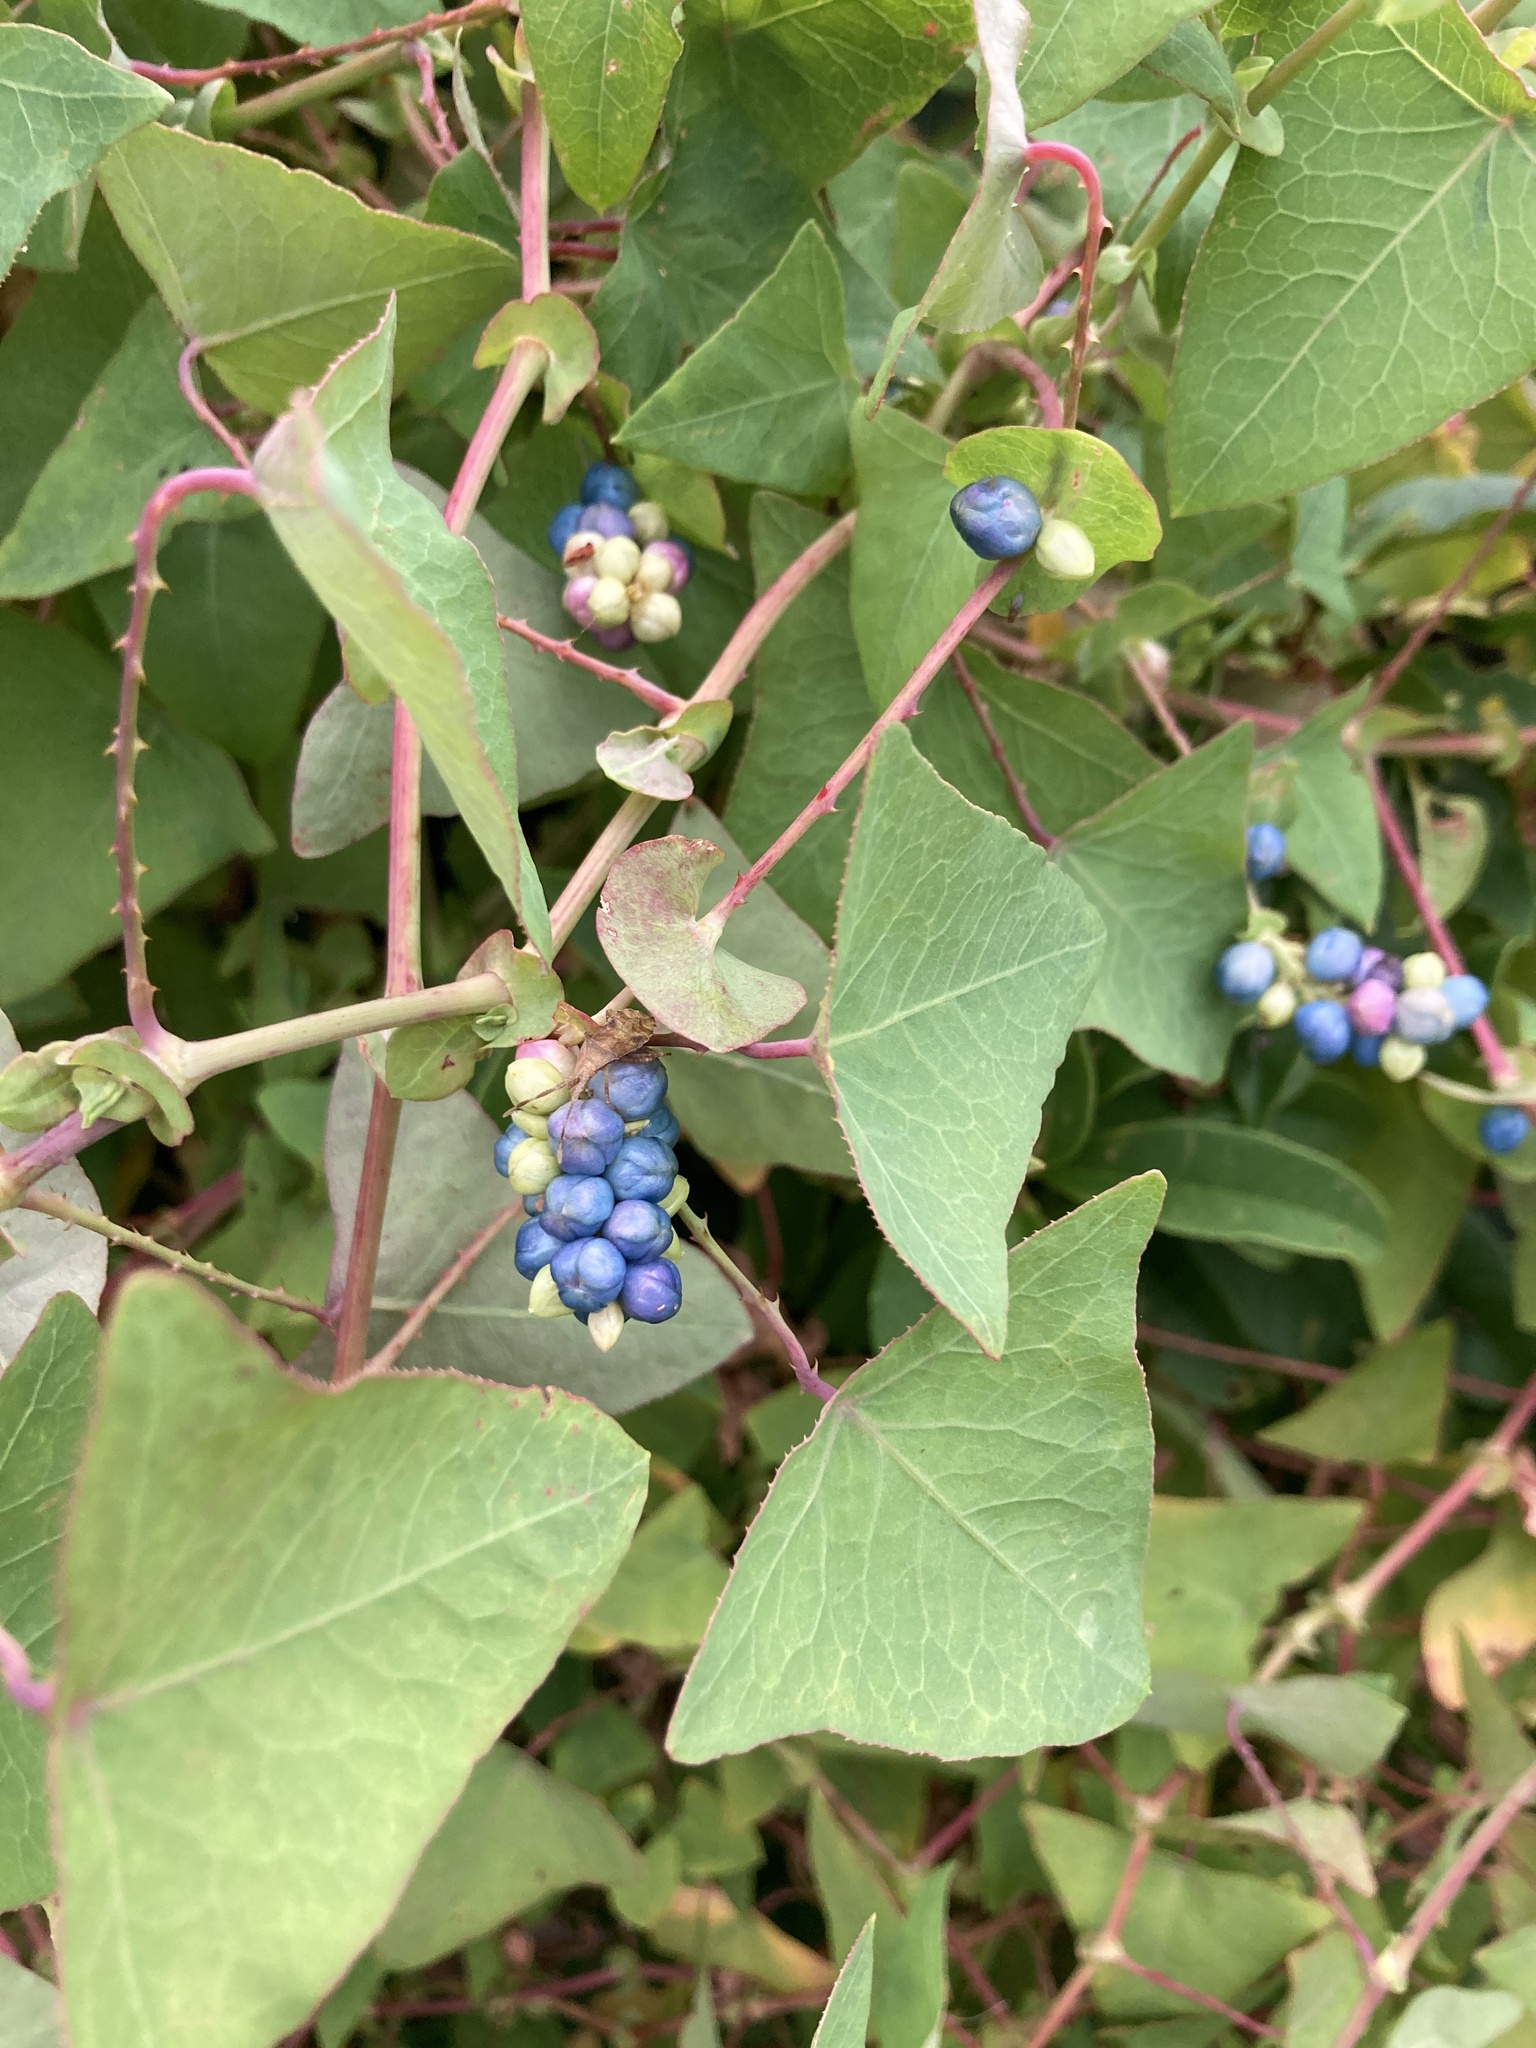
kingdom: Plantae
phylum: Tracheophyta
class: Magnoliopsida
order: Caryophyllales
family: Polygonaceae
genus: Persicaria
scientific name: Persicaria perfoliata
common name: Asiatic tearthumb
